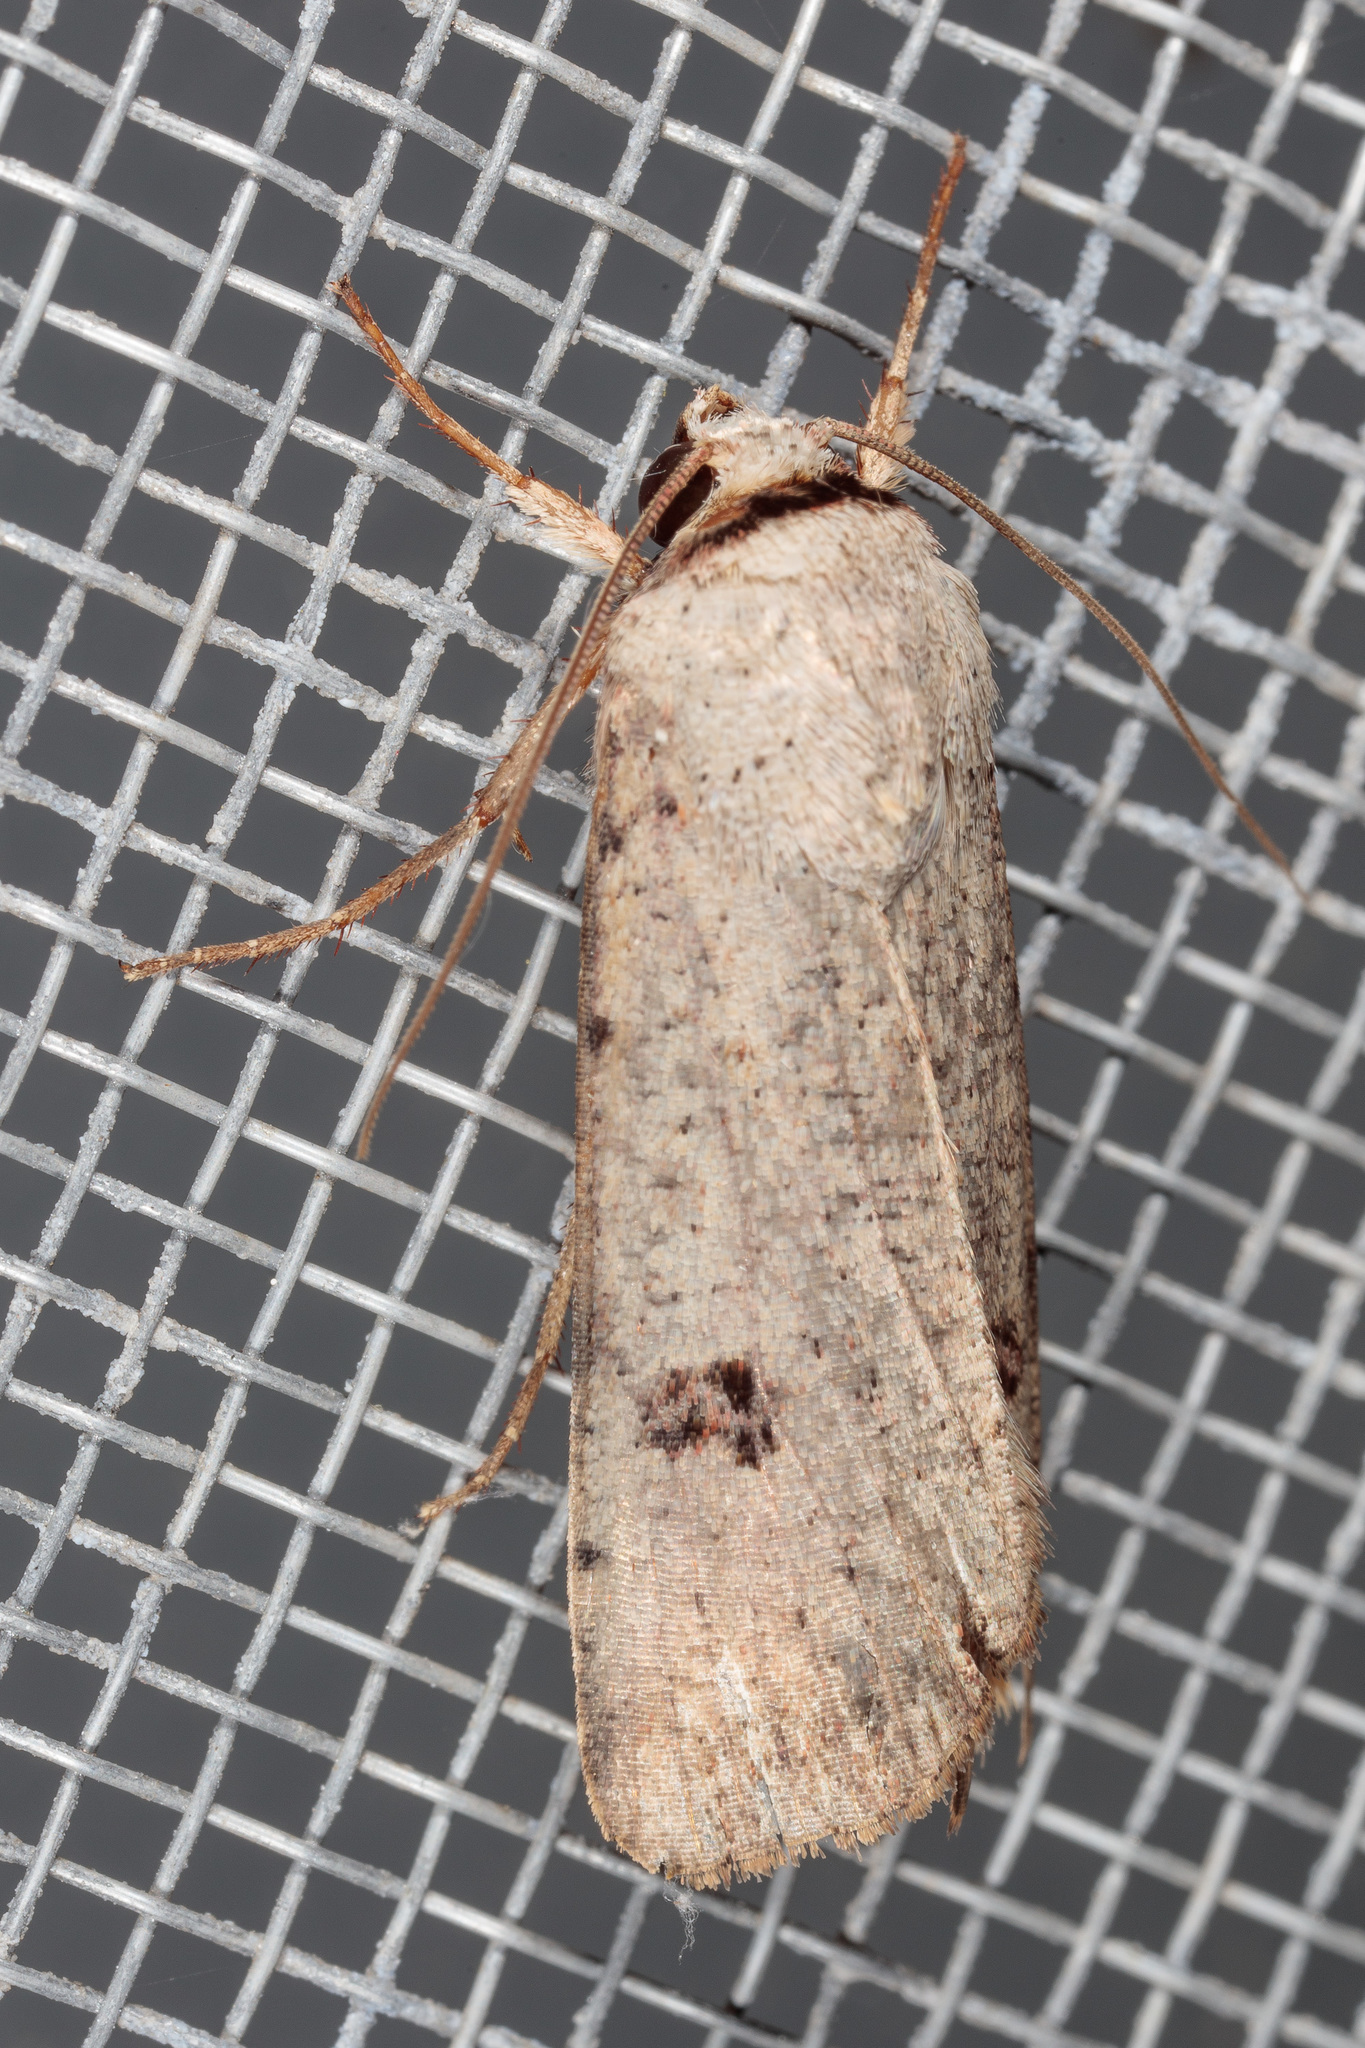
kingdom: Animalia
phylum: Arthropoda
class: Insecta
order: Lepidoptera
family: Noctuidae
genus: Anicla
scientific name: Anicla infecta
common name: Green cutworm
